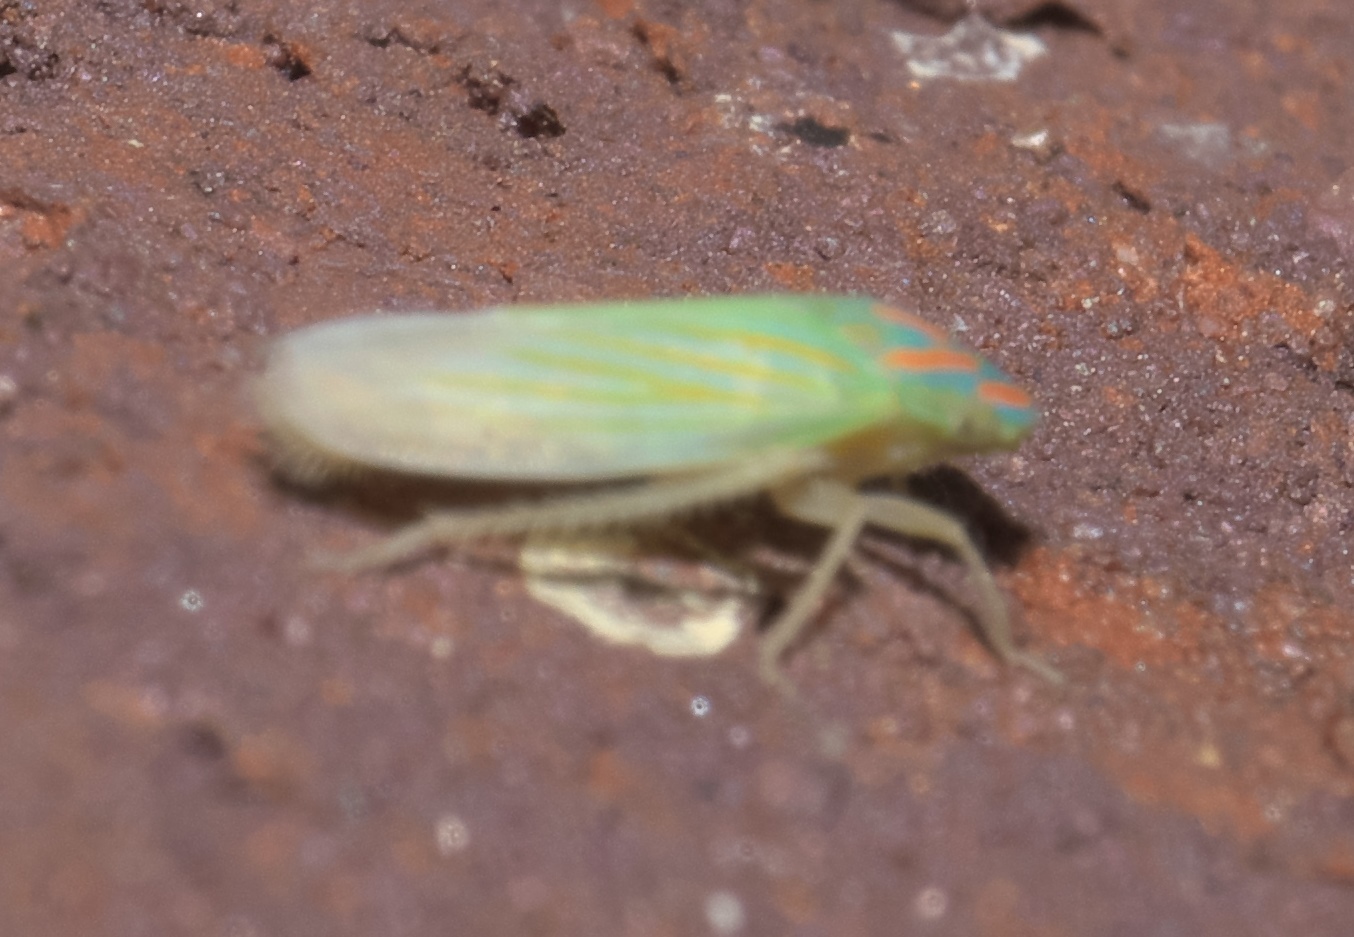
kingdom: Animalia
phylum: Arthropoda
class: Insecta
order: Hemiptera
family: Cicadellidae
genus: Spangbergiella
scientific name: Spangbergiella vulnerata
